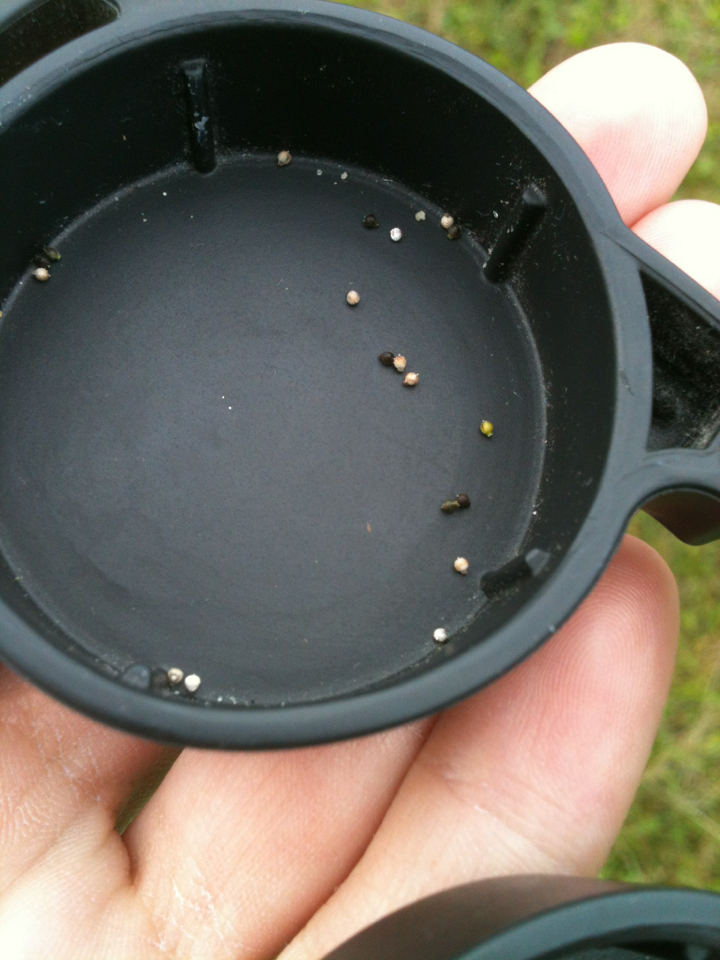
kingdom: Plantae
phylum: Tracheophyta
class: Liliopsida
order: Poales
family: Cyperaceae
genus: Scleria
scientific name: Scleria verticillata
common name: Low nutrush
